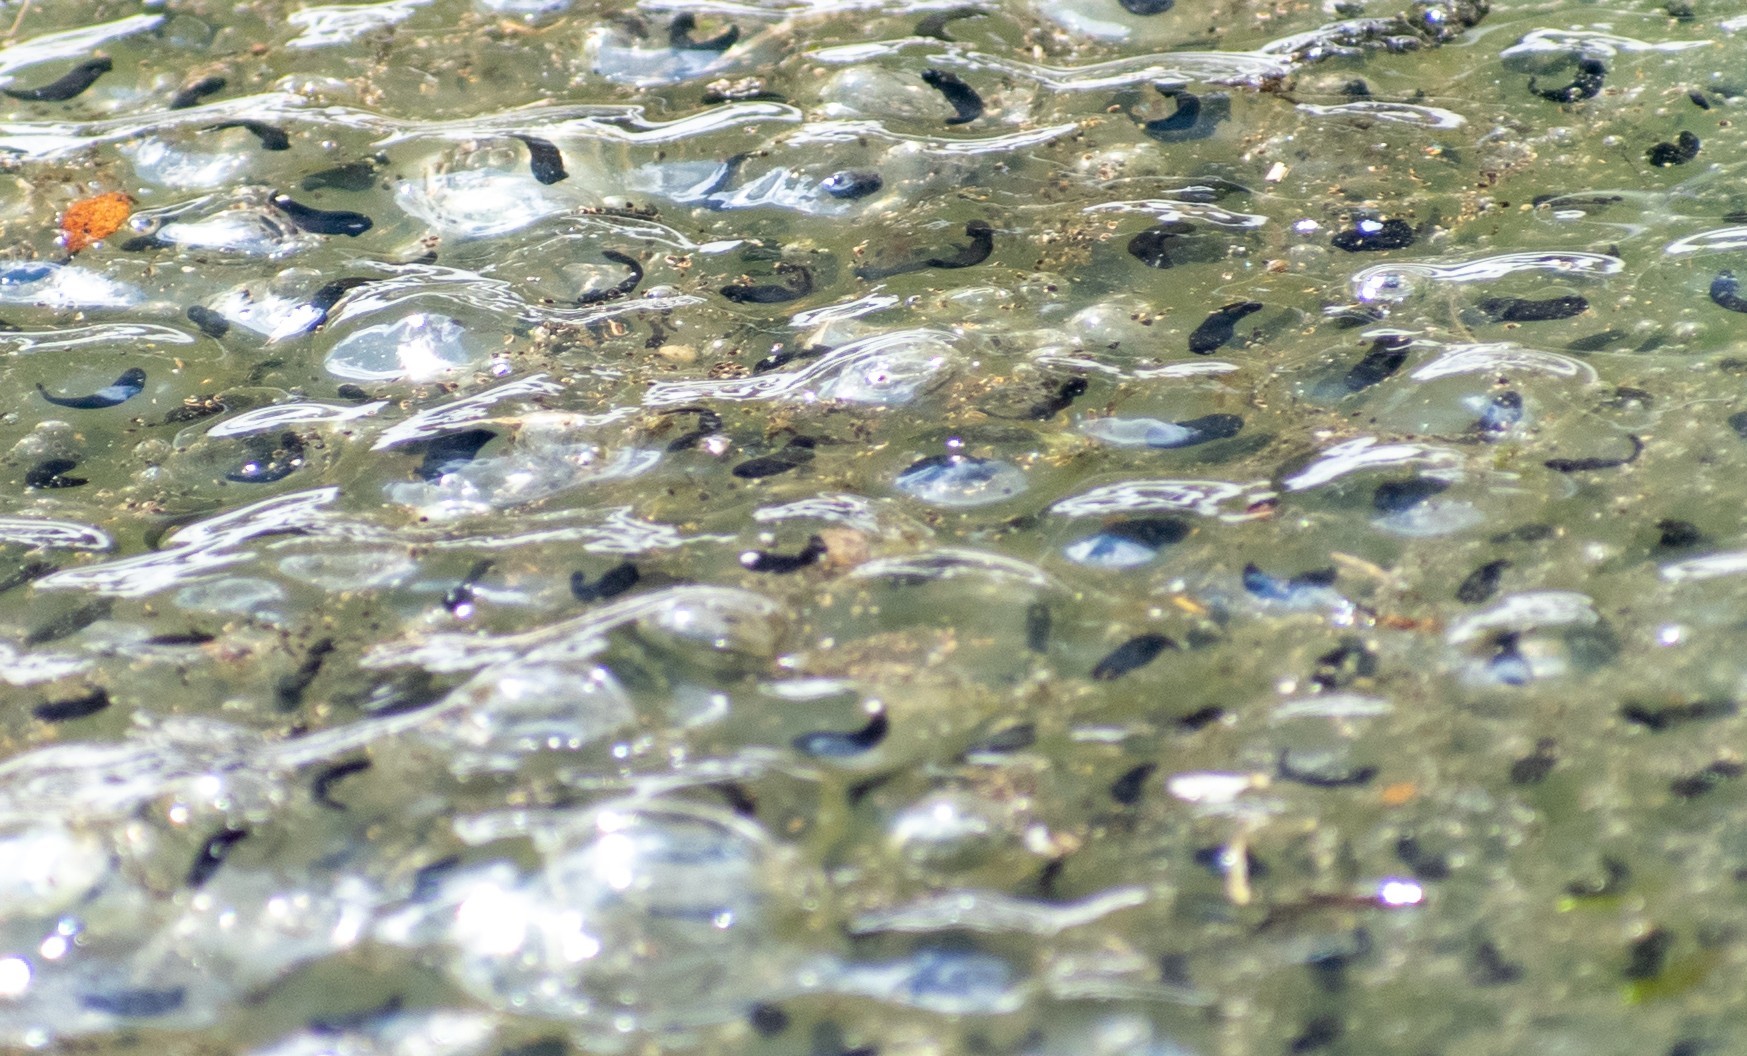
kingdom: Animalia
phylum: Chordata
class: Amphibia
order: Anura
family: Ranidae
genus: Rana
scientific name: Rana temporaria
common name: Common frog
